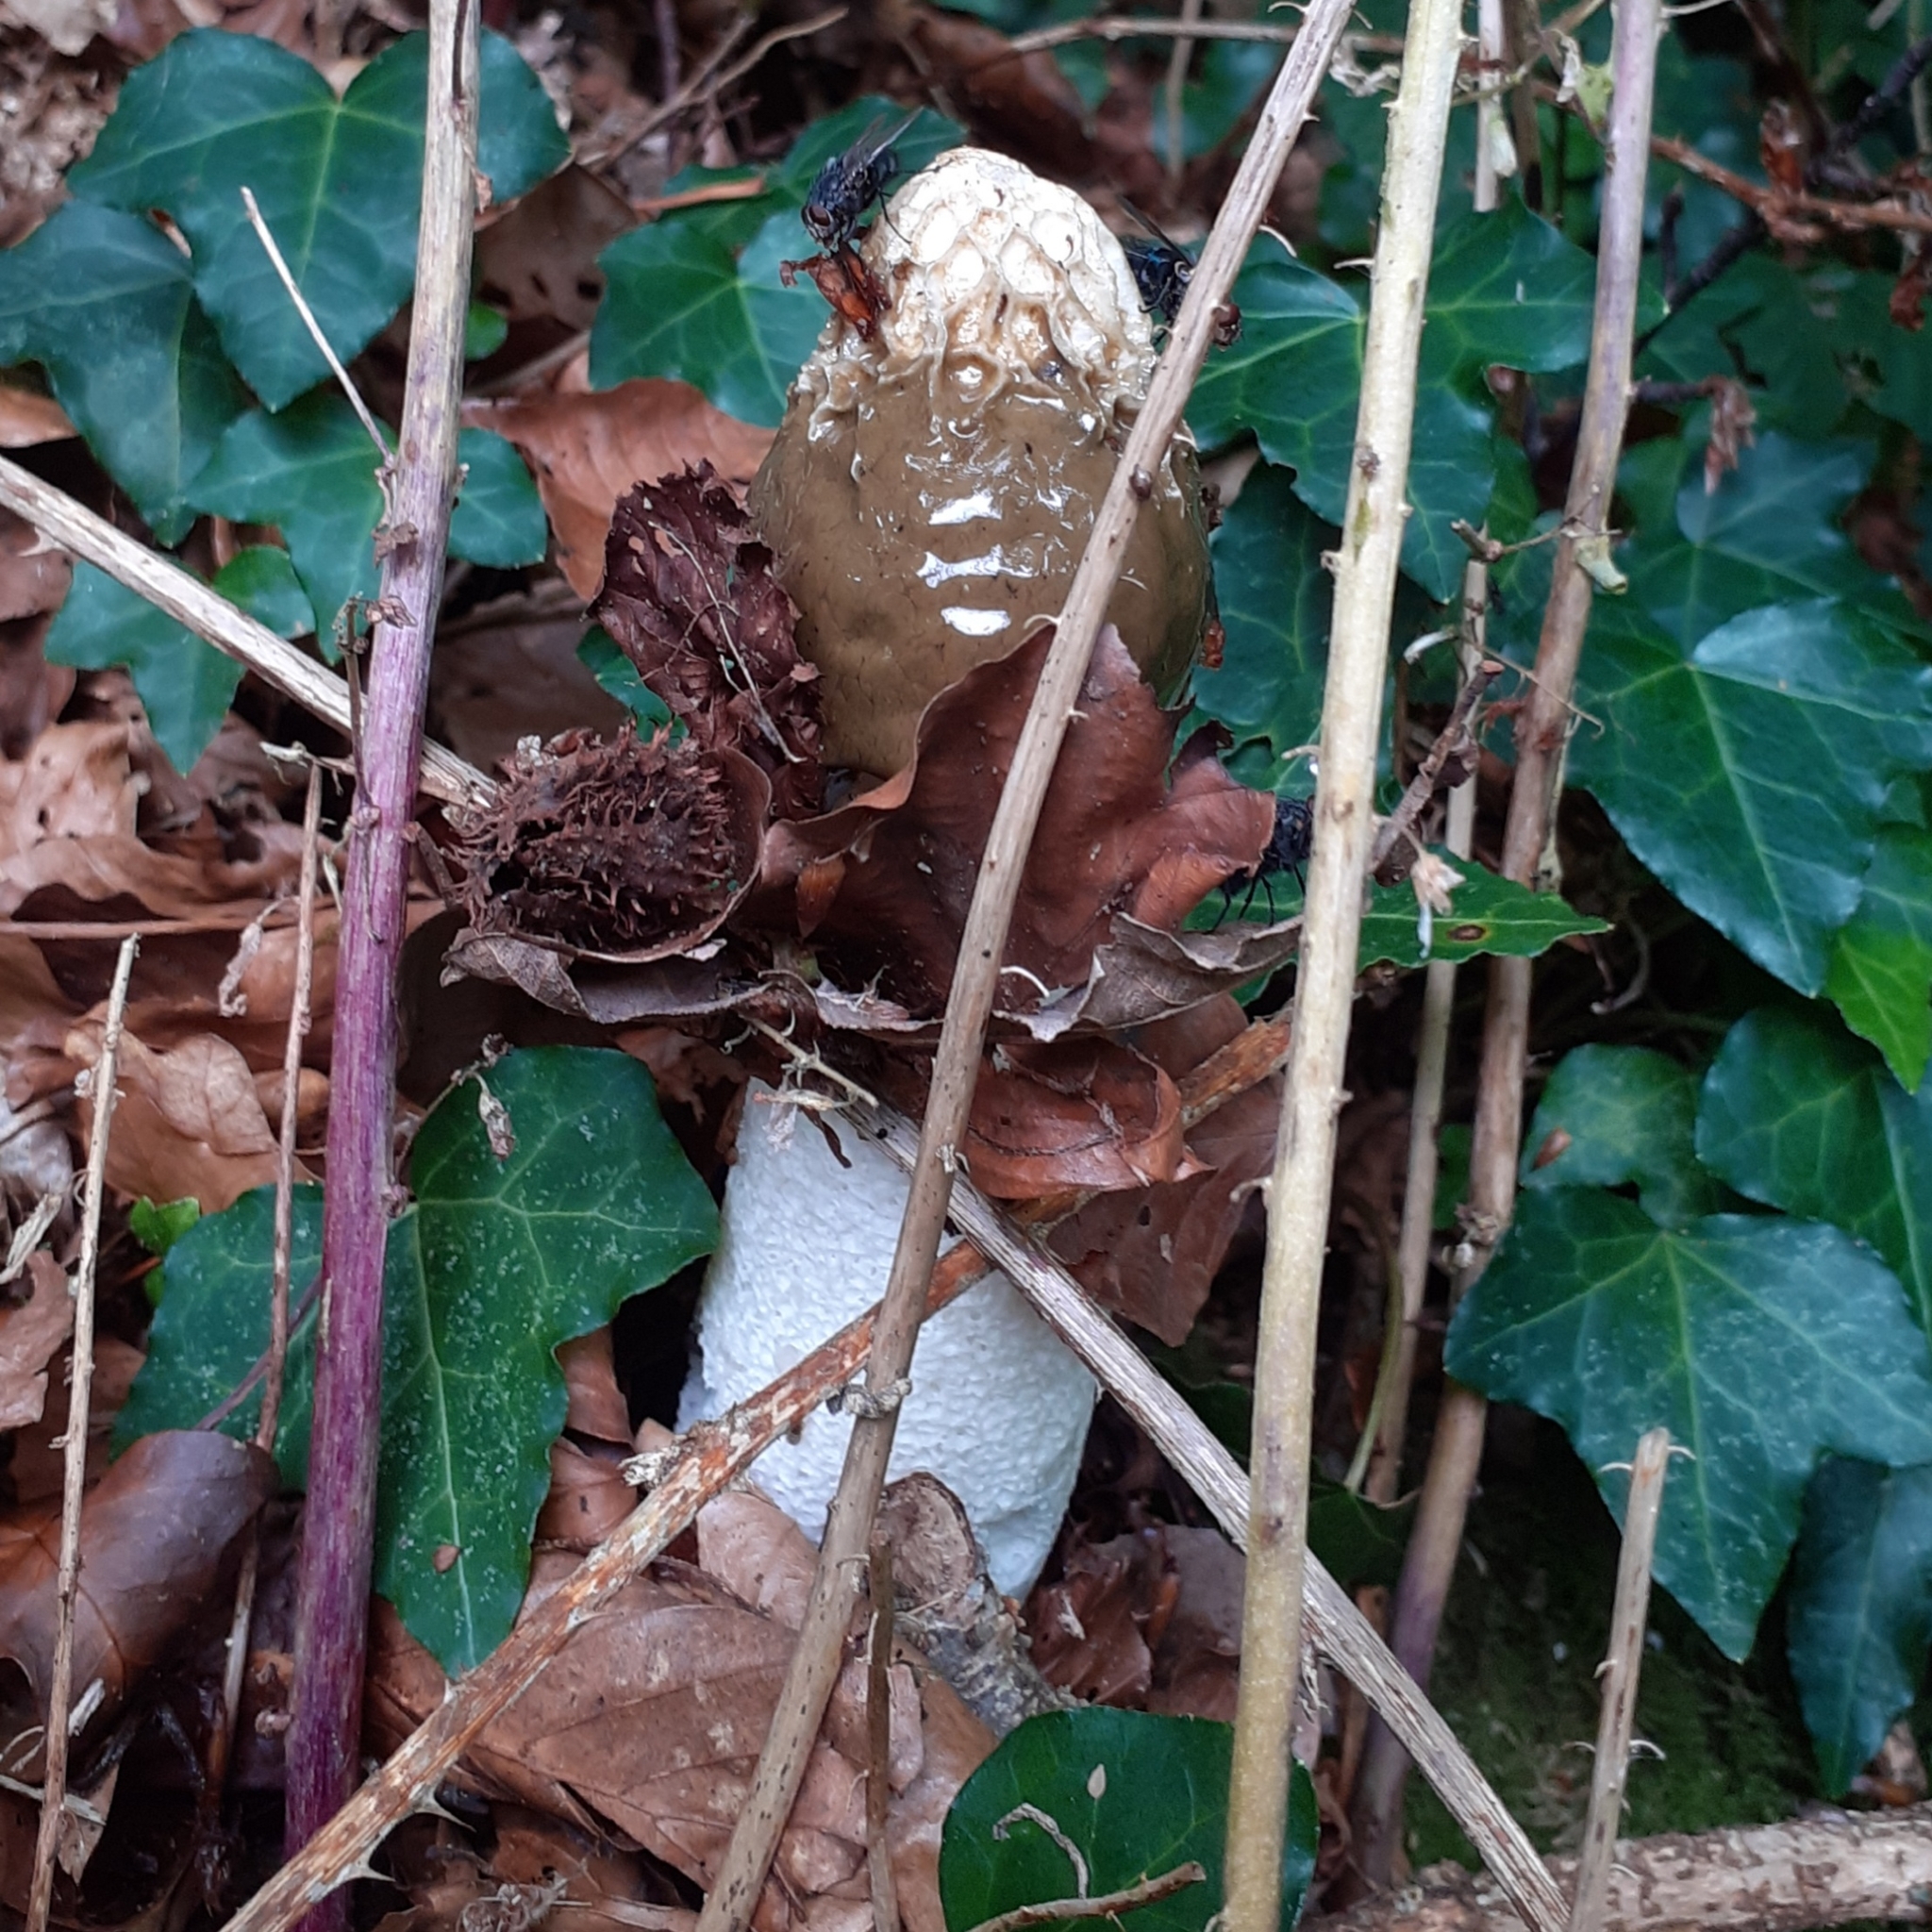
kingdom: Fungi
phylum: Basidiomycota
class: Agaricomycetes
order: Phallales
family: Phallaceae
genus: Phallus
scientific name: Phallus impudicus
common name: Common stinkhorn
